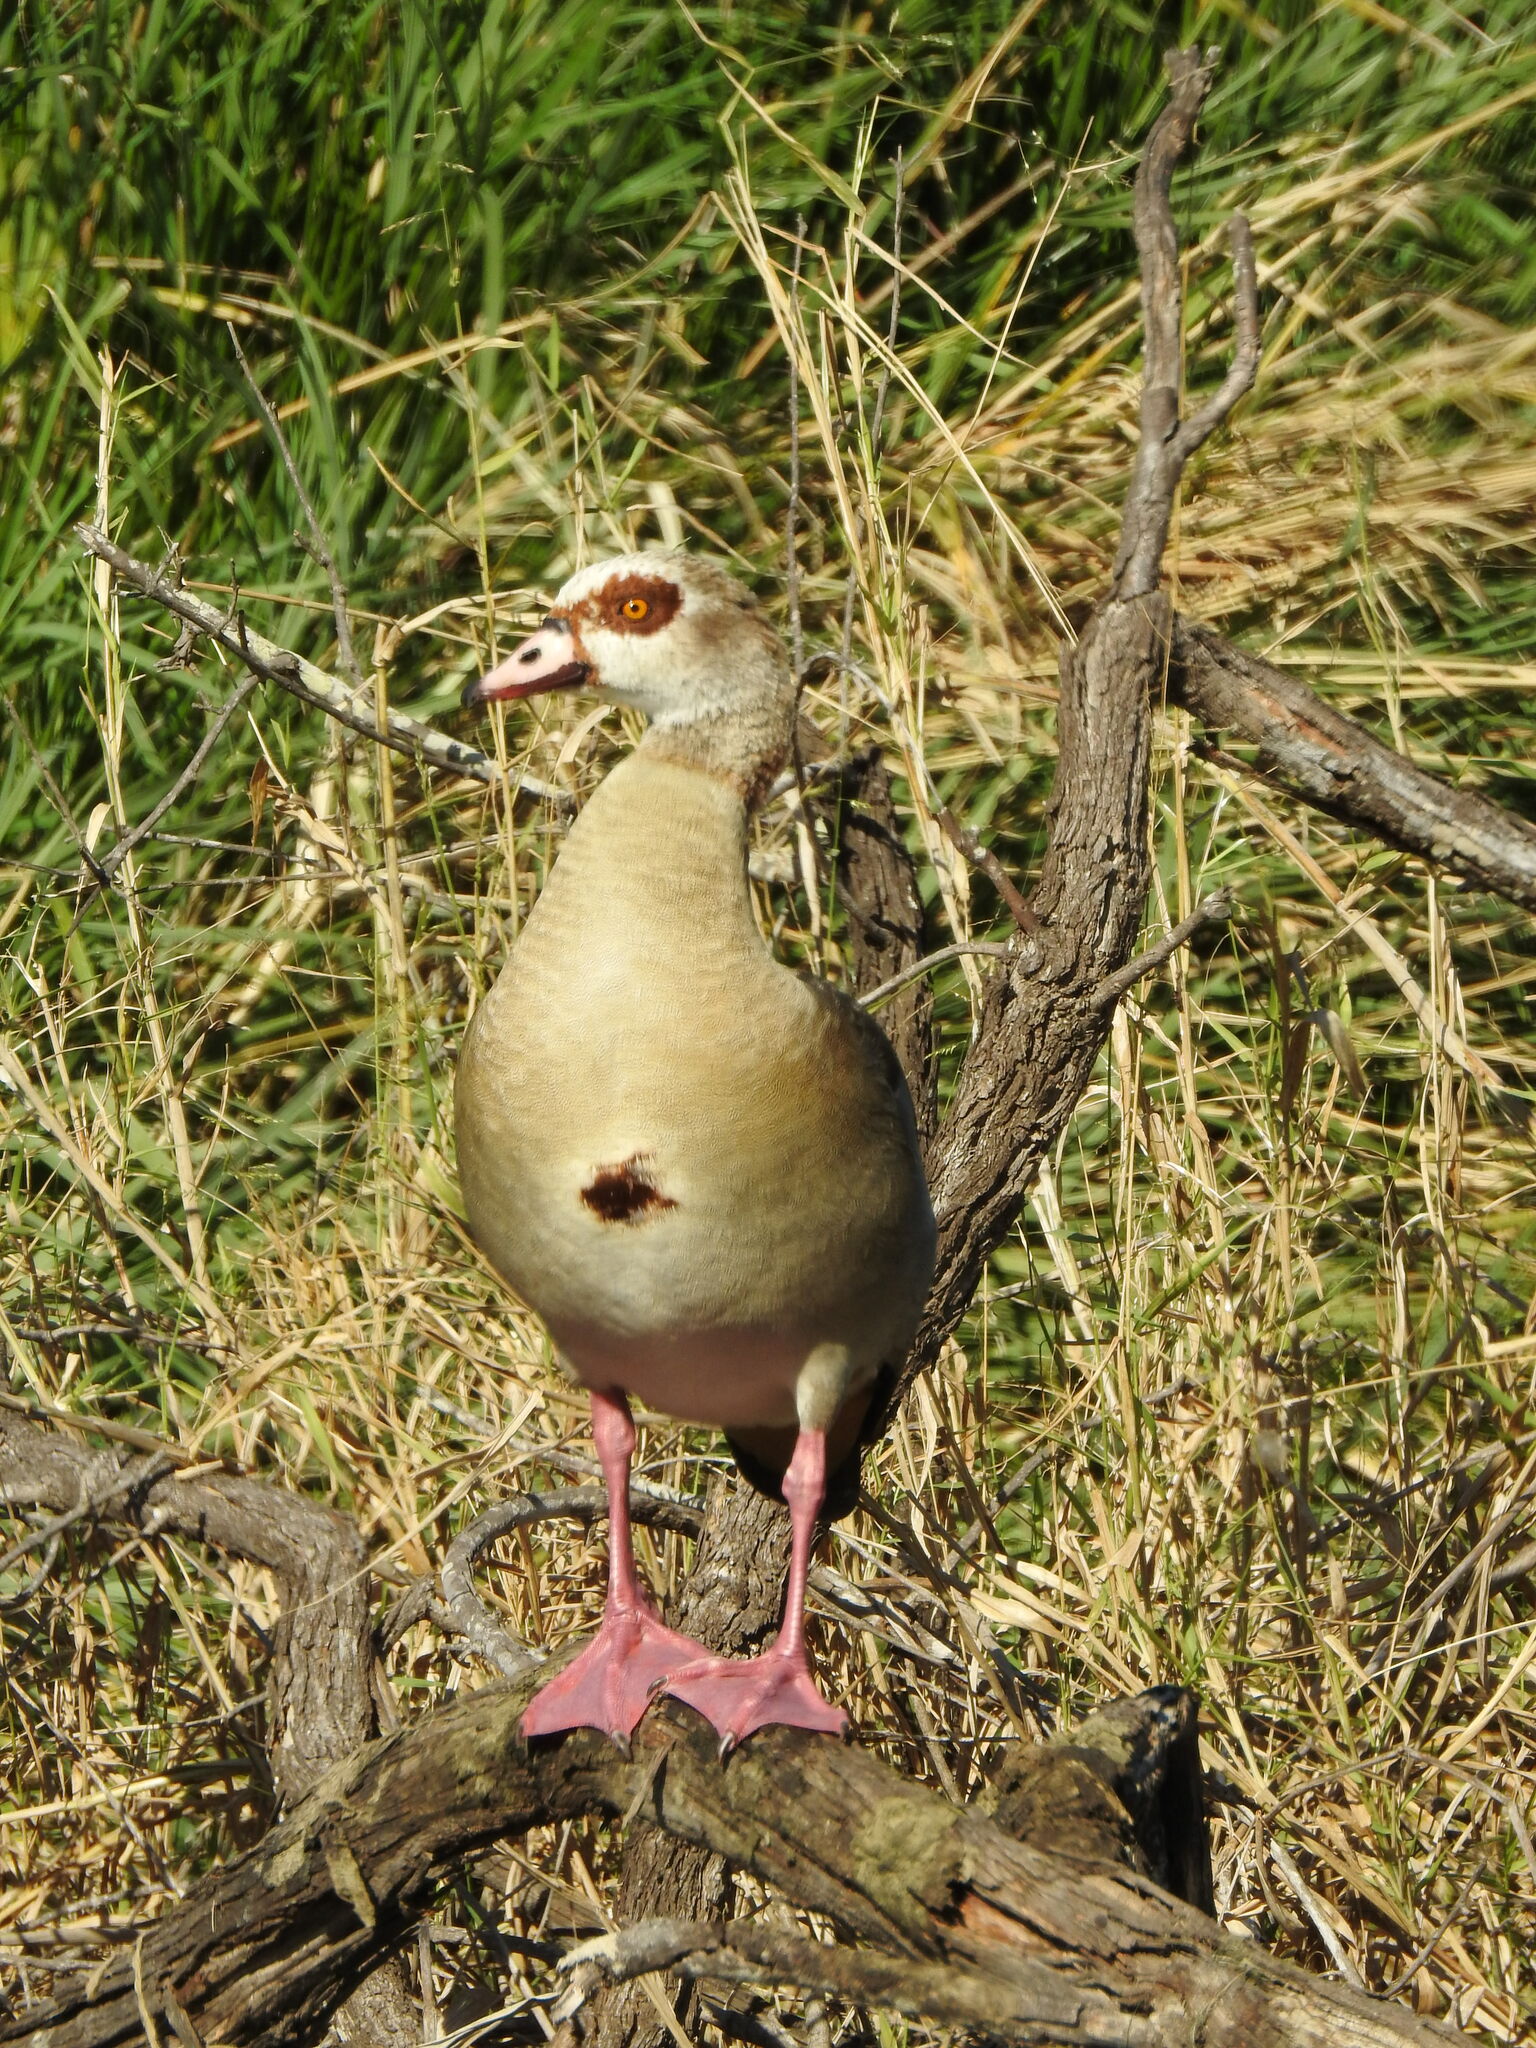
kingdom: Animalia
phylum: Chordata
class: Aves
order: Anseriformes
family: Anatidae
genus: Alopochen
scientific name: Alopochen aegyptiaca
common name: Egyptian goose
